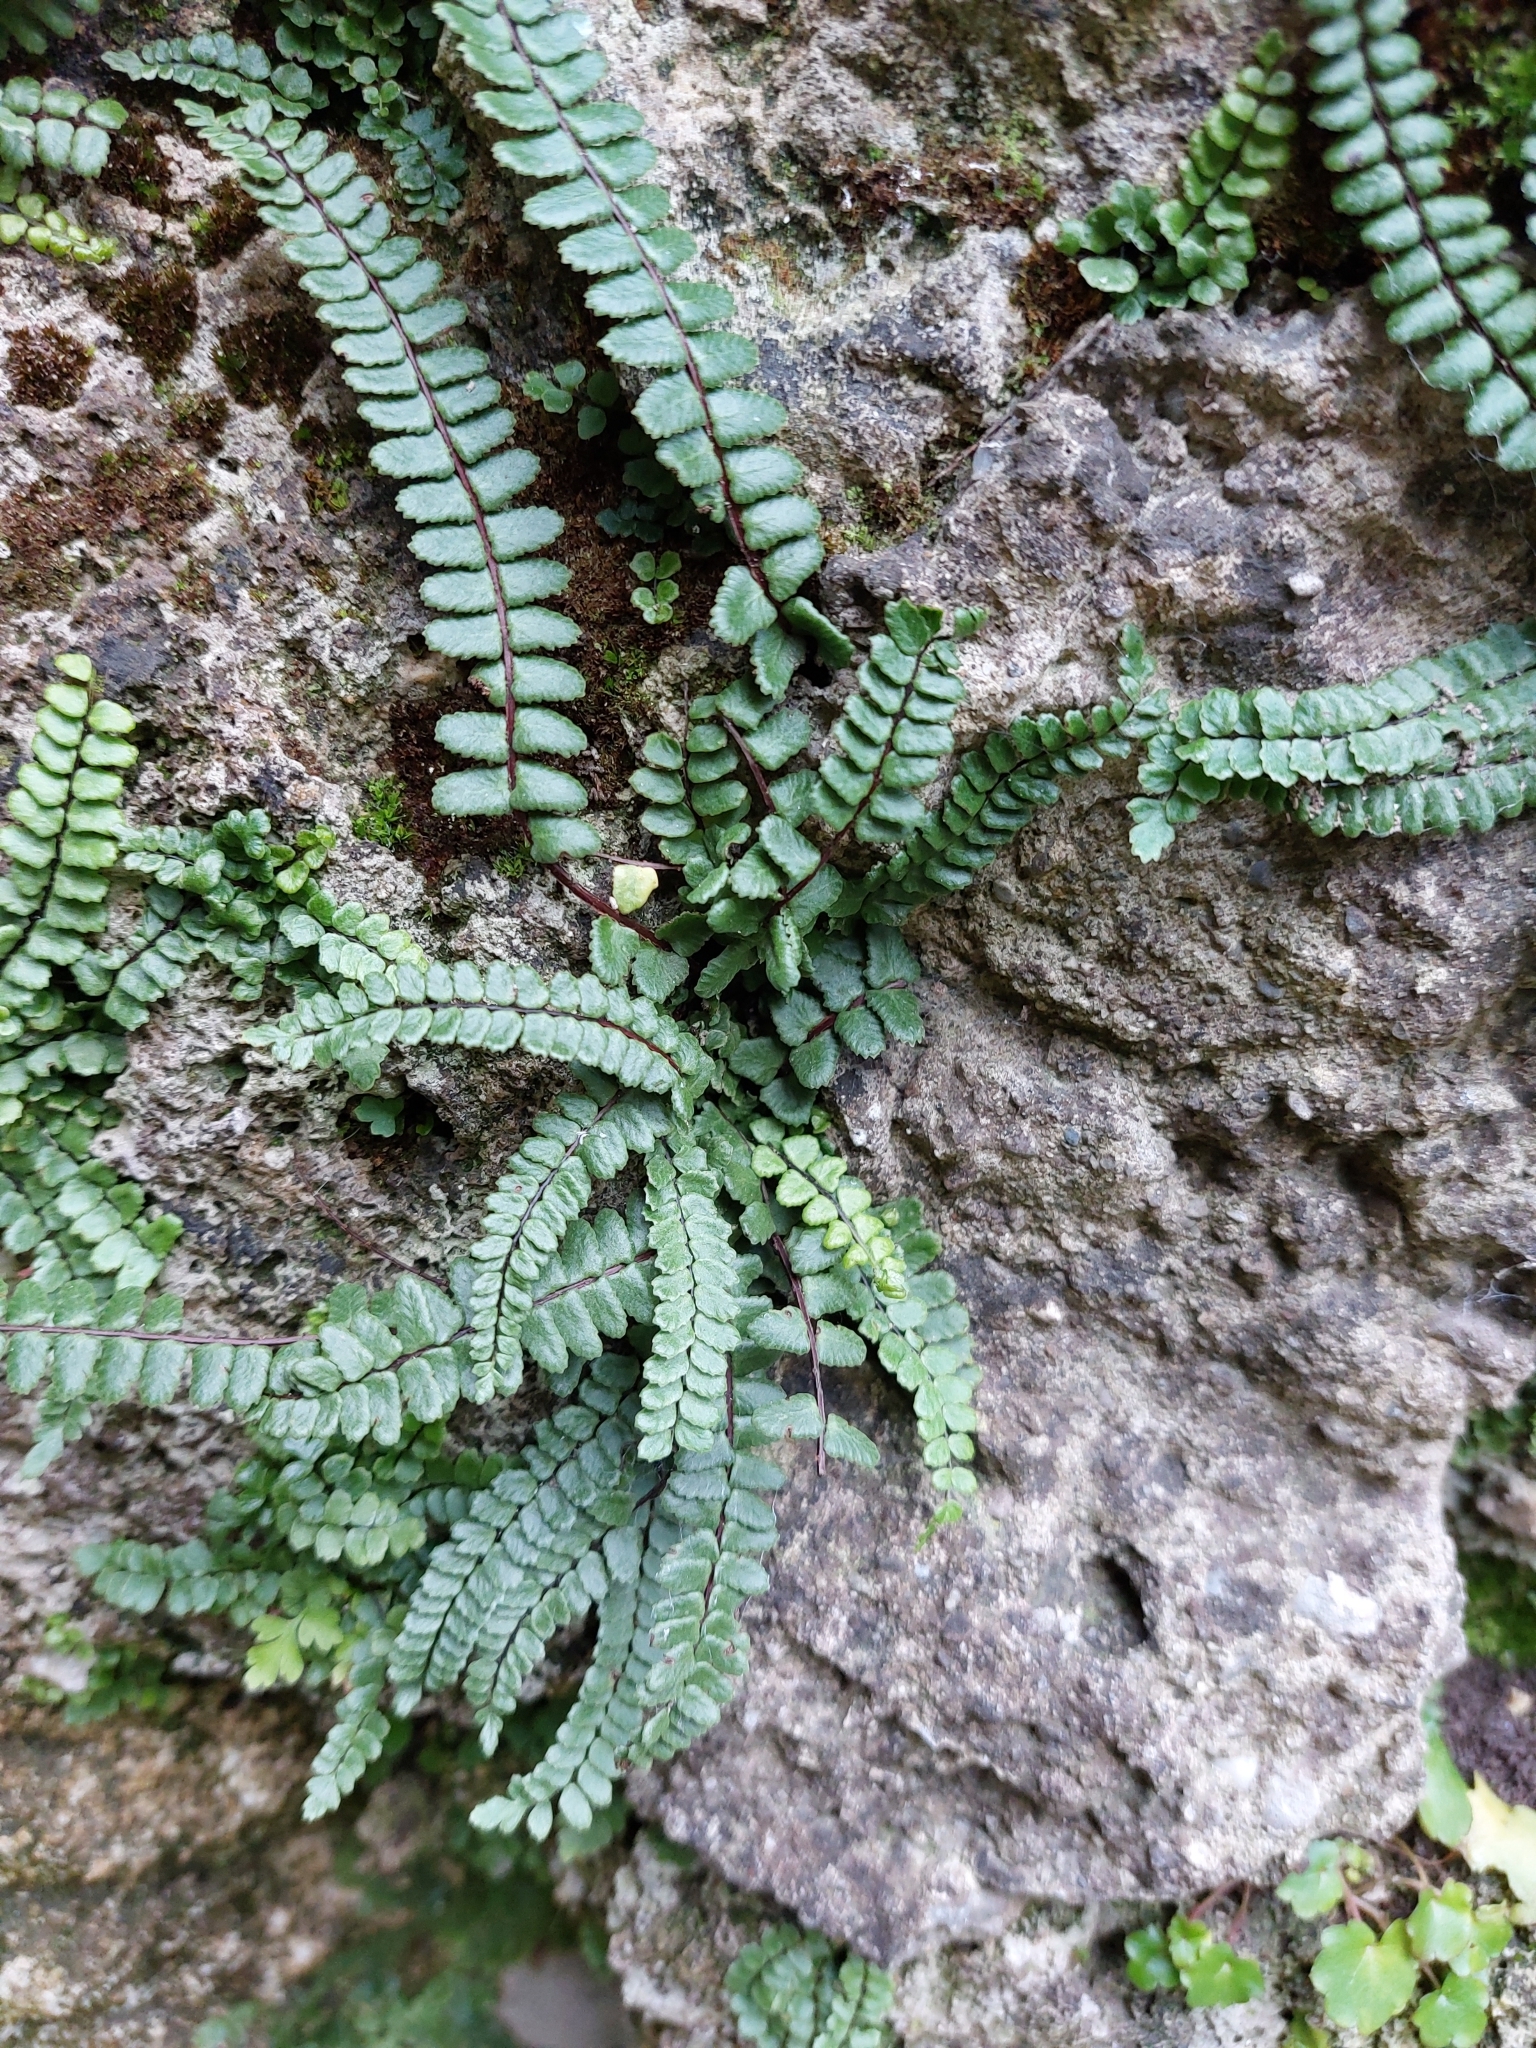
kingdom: Plantae
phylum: Tracheophyta
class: Polypodiopsida
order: Polypodiales
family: Aspleniaceae
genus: Asplenium
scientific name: Asplenium trichomanes
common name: Maidenhair spleenwort
